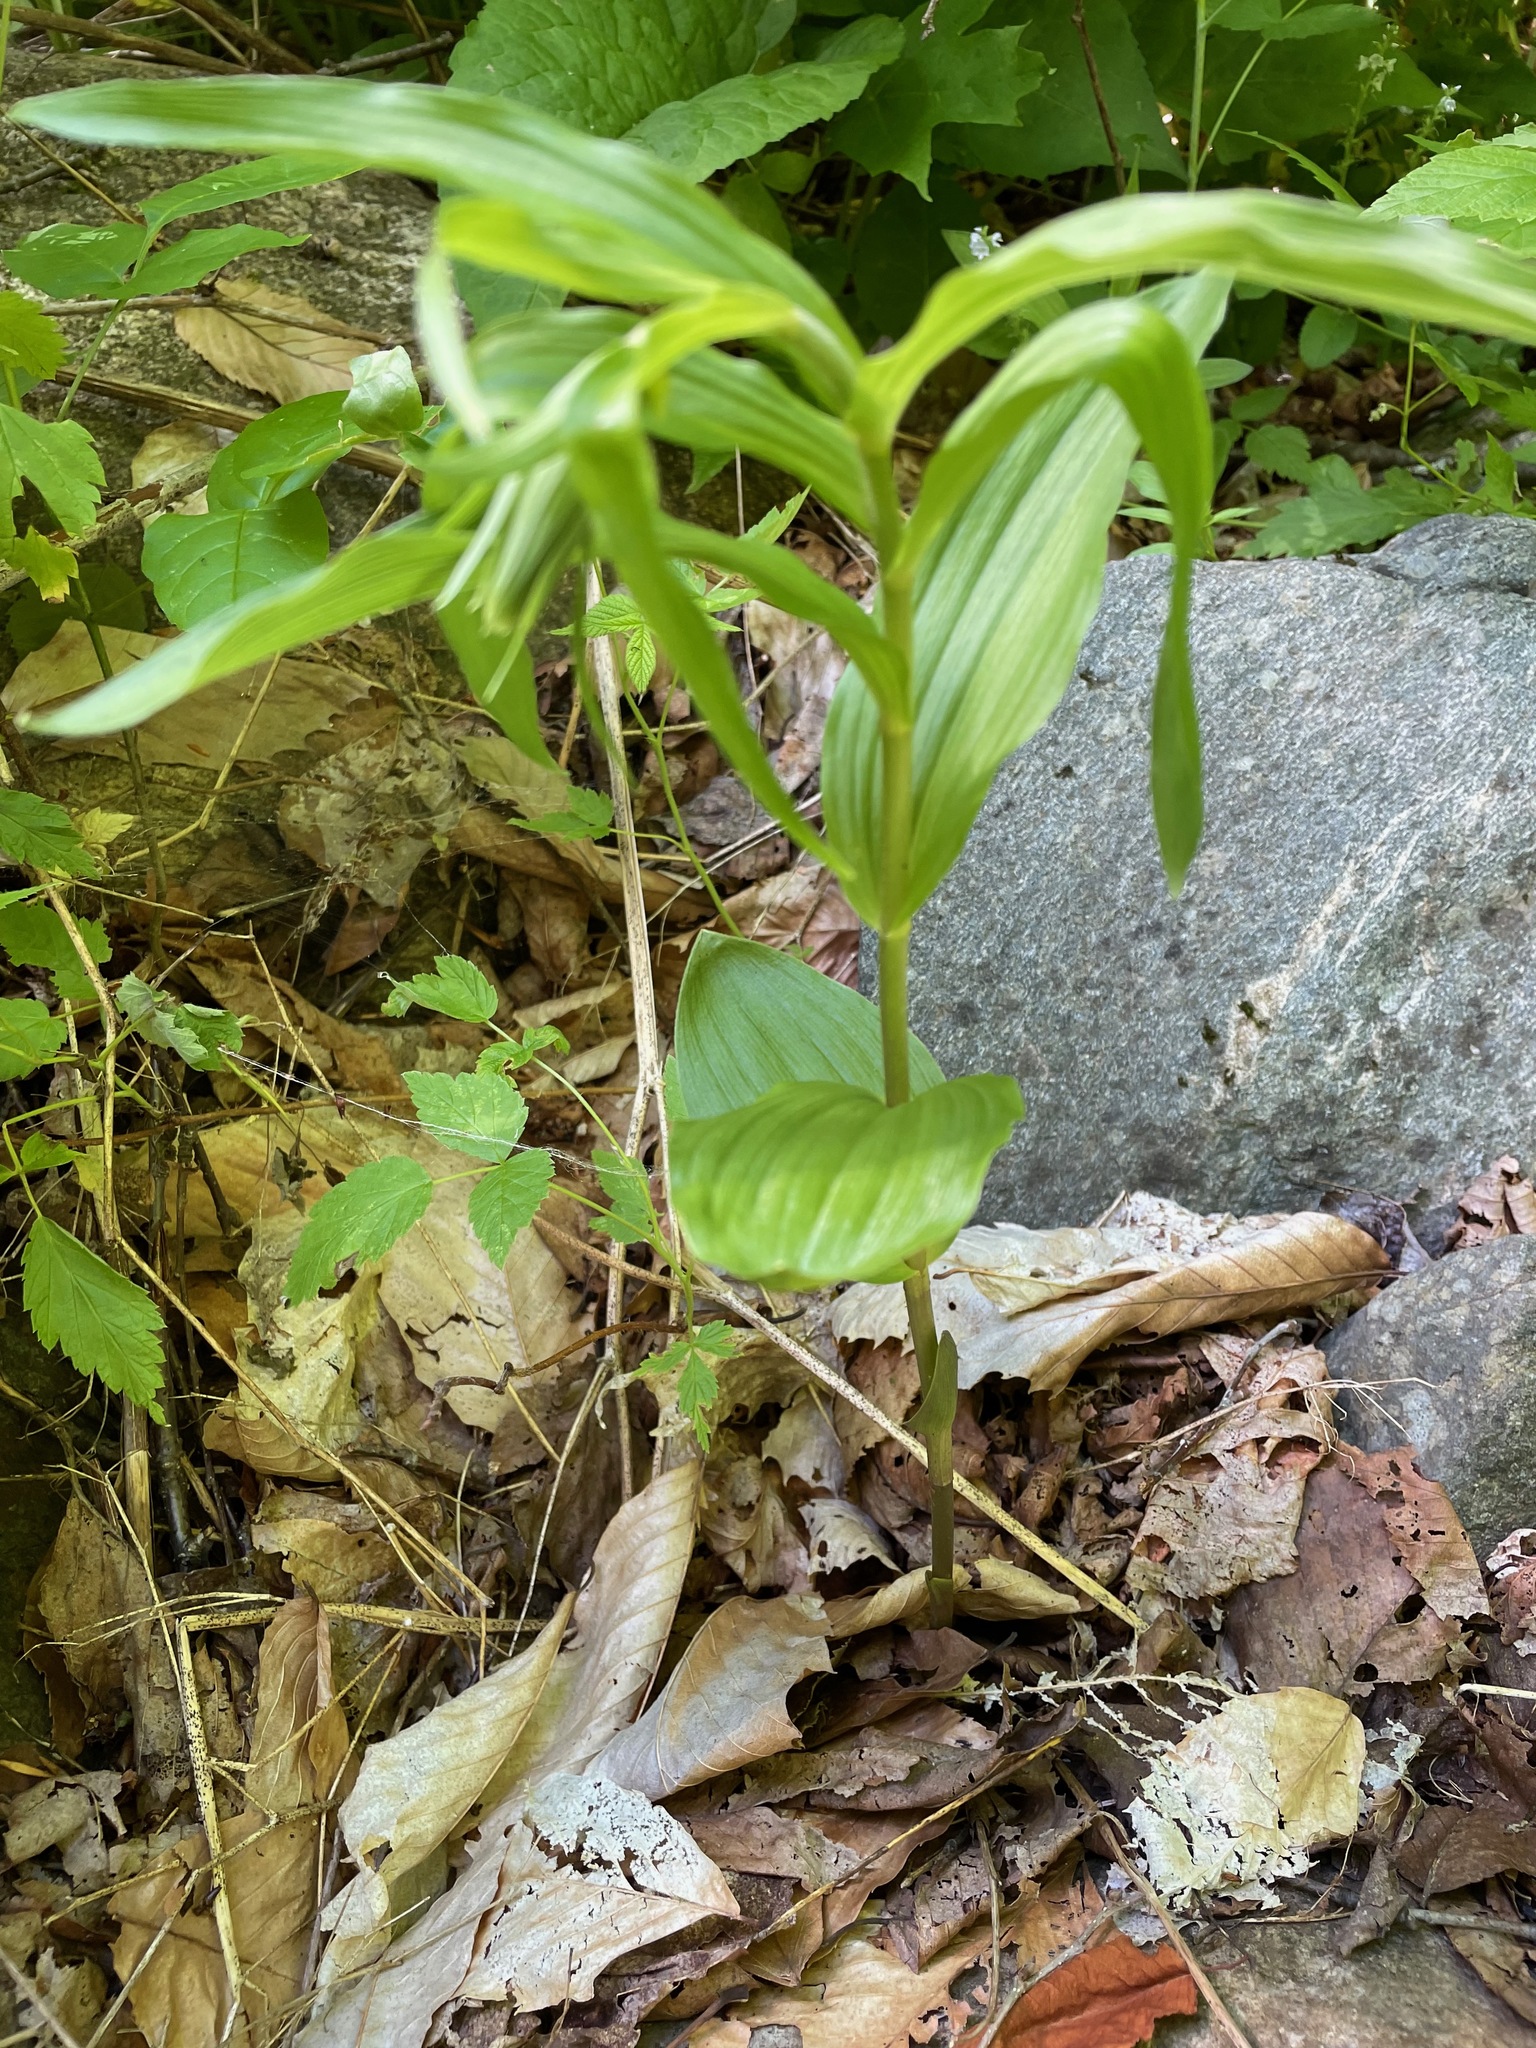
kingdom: Plantae
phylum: Tracheophyta
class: Liliopsida
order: Asparagales
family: Orchidaceae
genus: Epipactis
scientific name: Epipactis helleborine
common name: Broad-leaved helleborine
